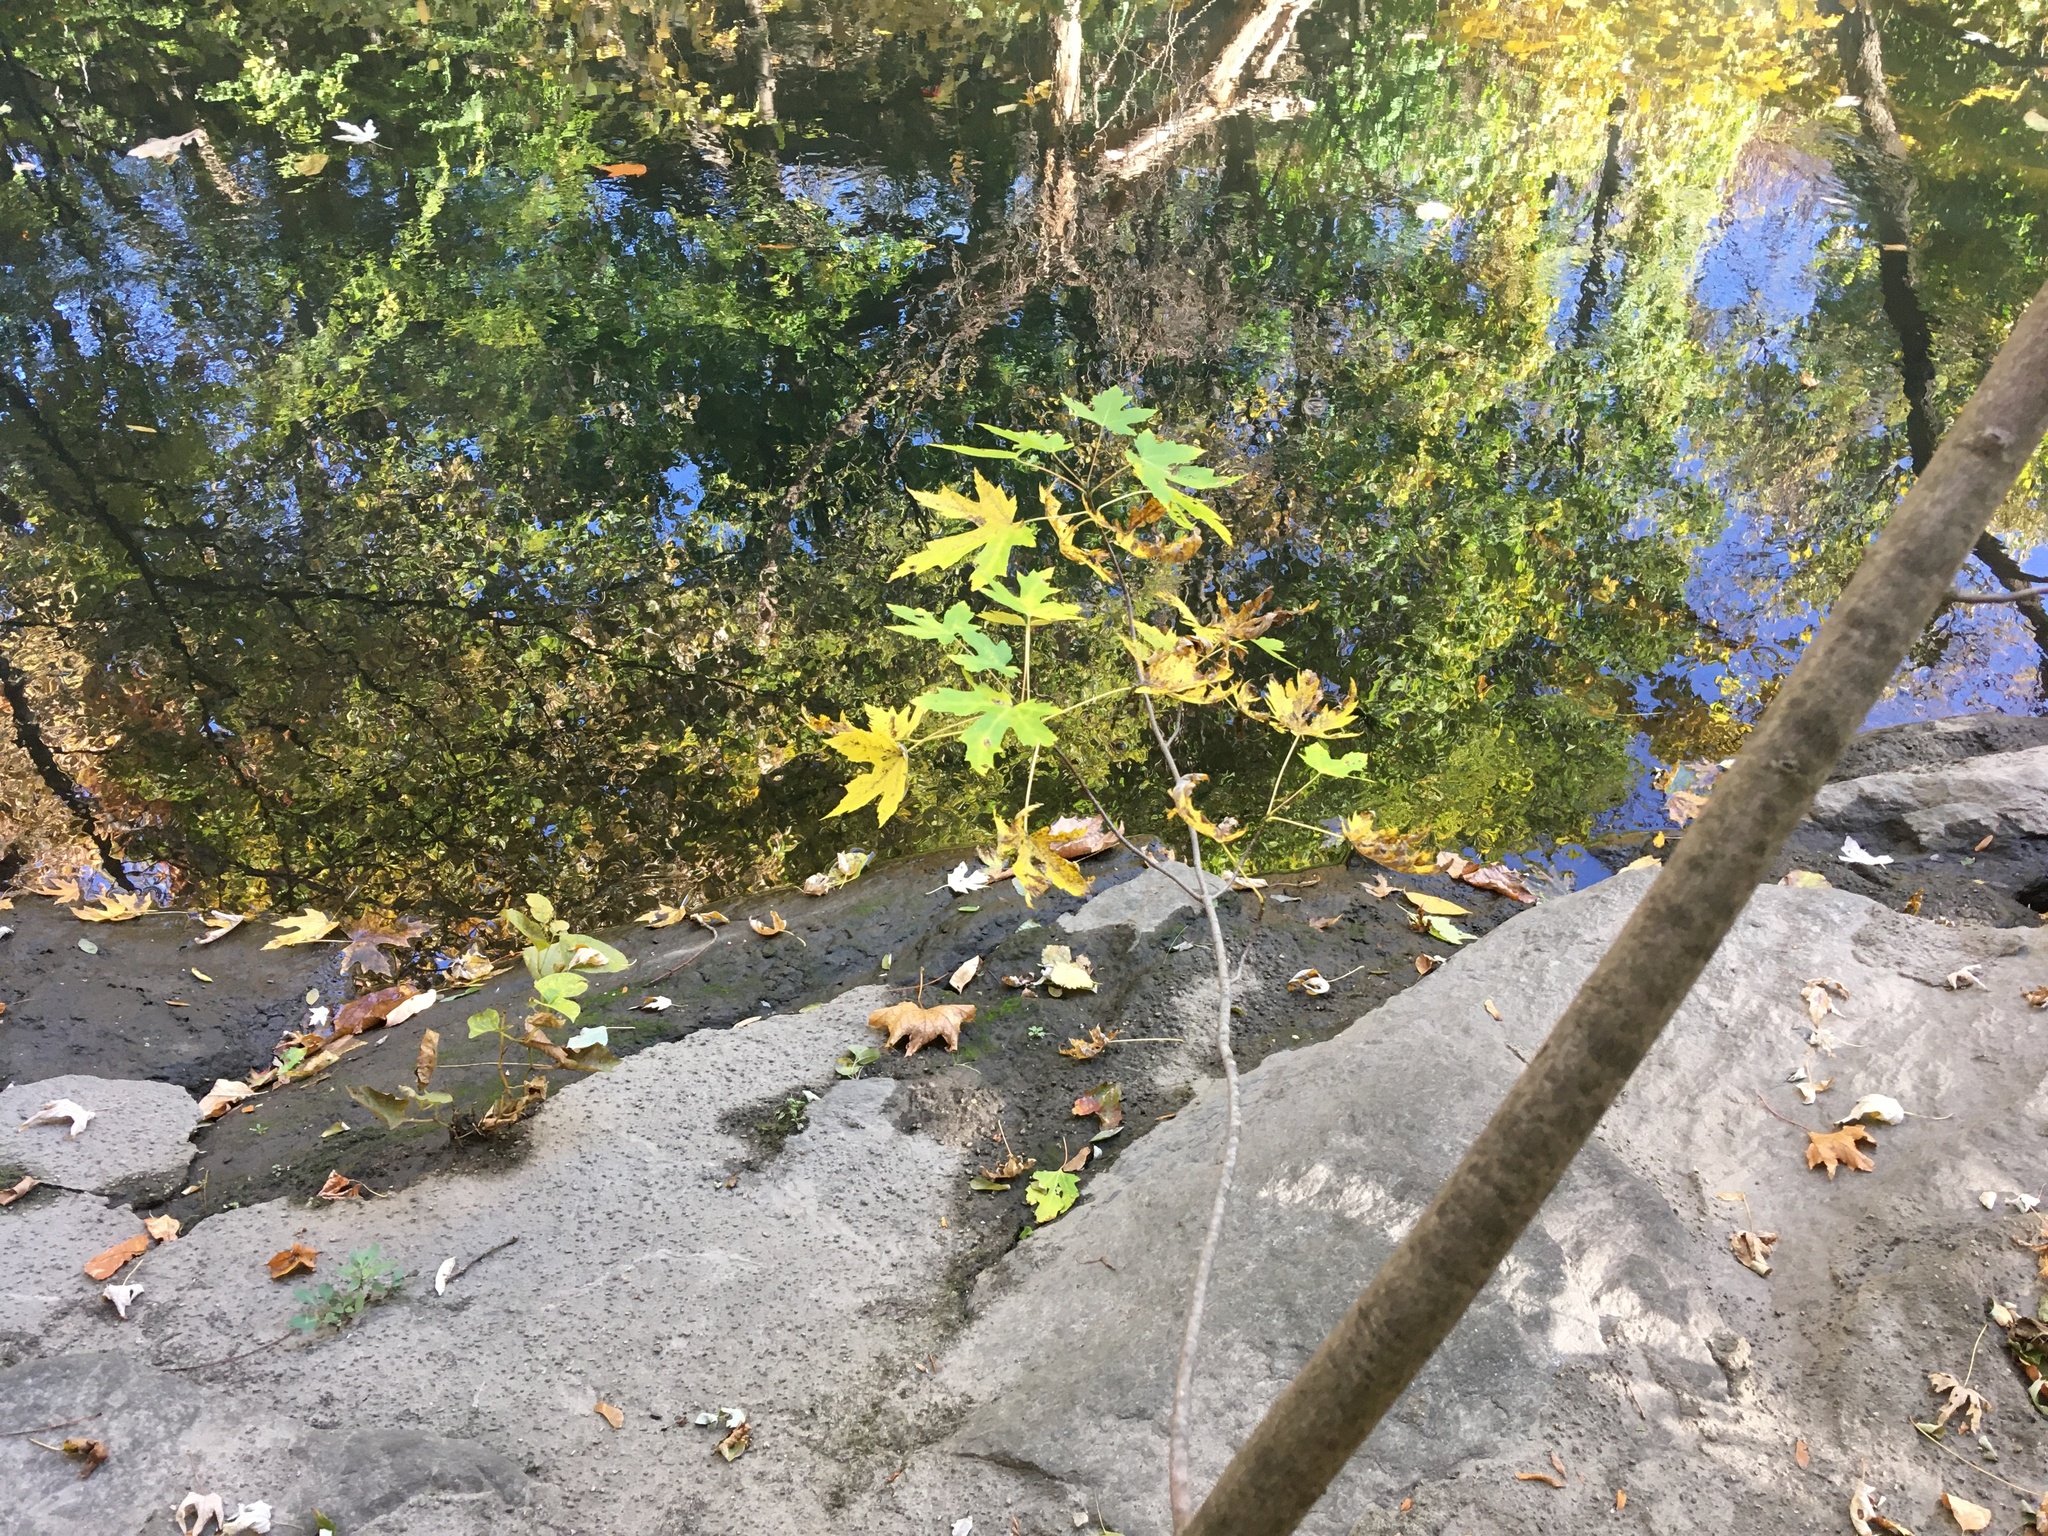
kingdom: Plantae
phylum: Tracheophyta
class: Magnoliopsida
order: Sapindales
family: Sapindaceae
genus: Acer
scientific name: Acer saccharinum
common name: Silver maple
